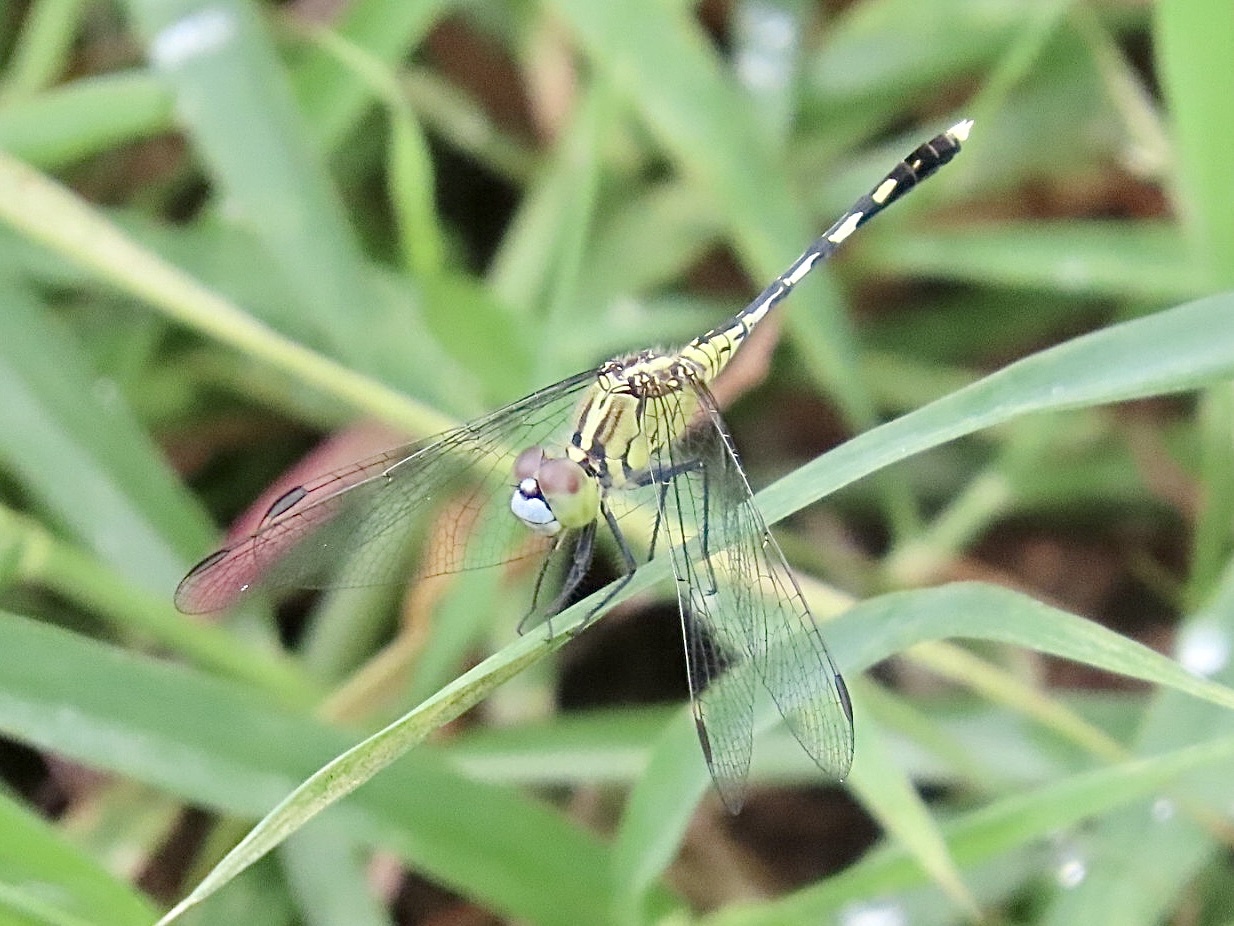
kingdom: Animalia
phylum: Arthropoda
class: Insecta
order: Odonata
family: Libellulidae
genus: Diplacodes
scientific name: Diplacodes trivialis
